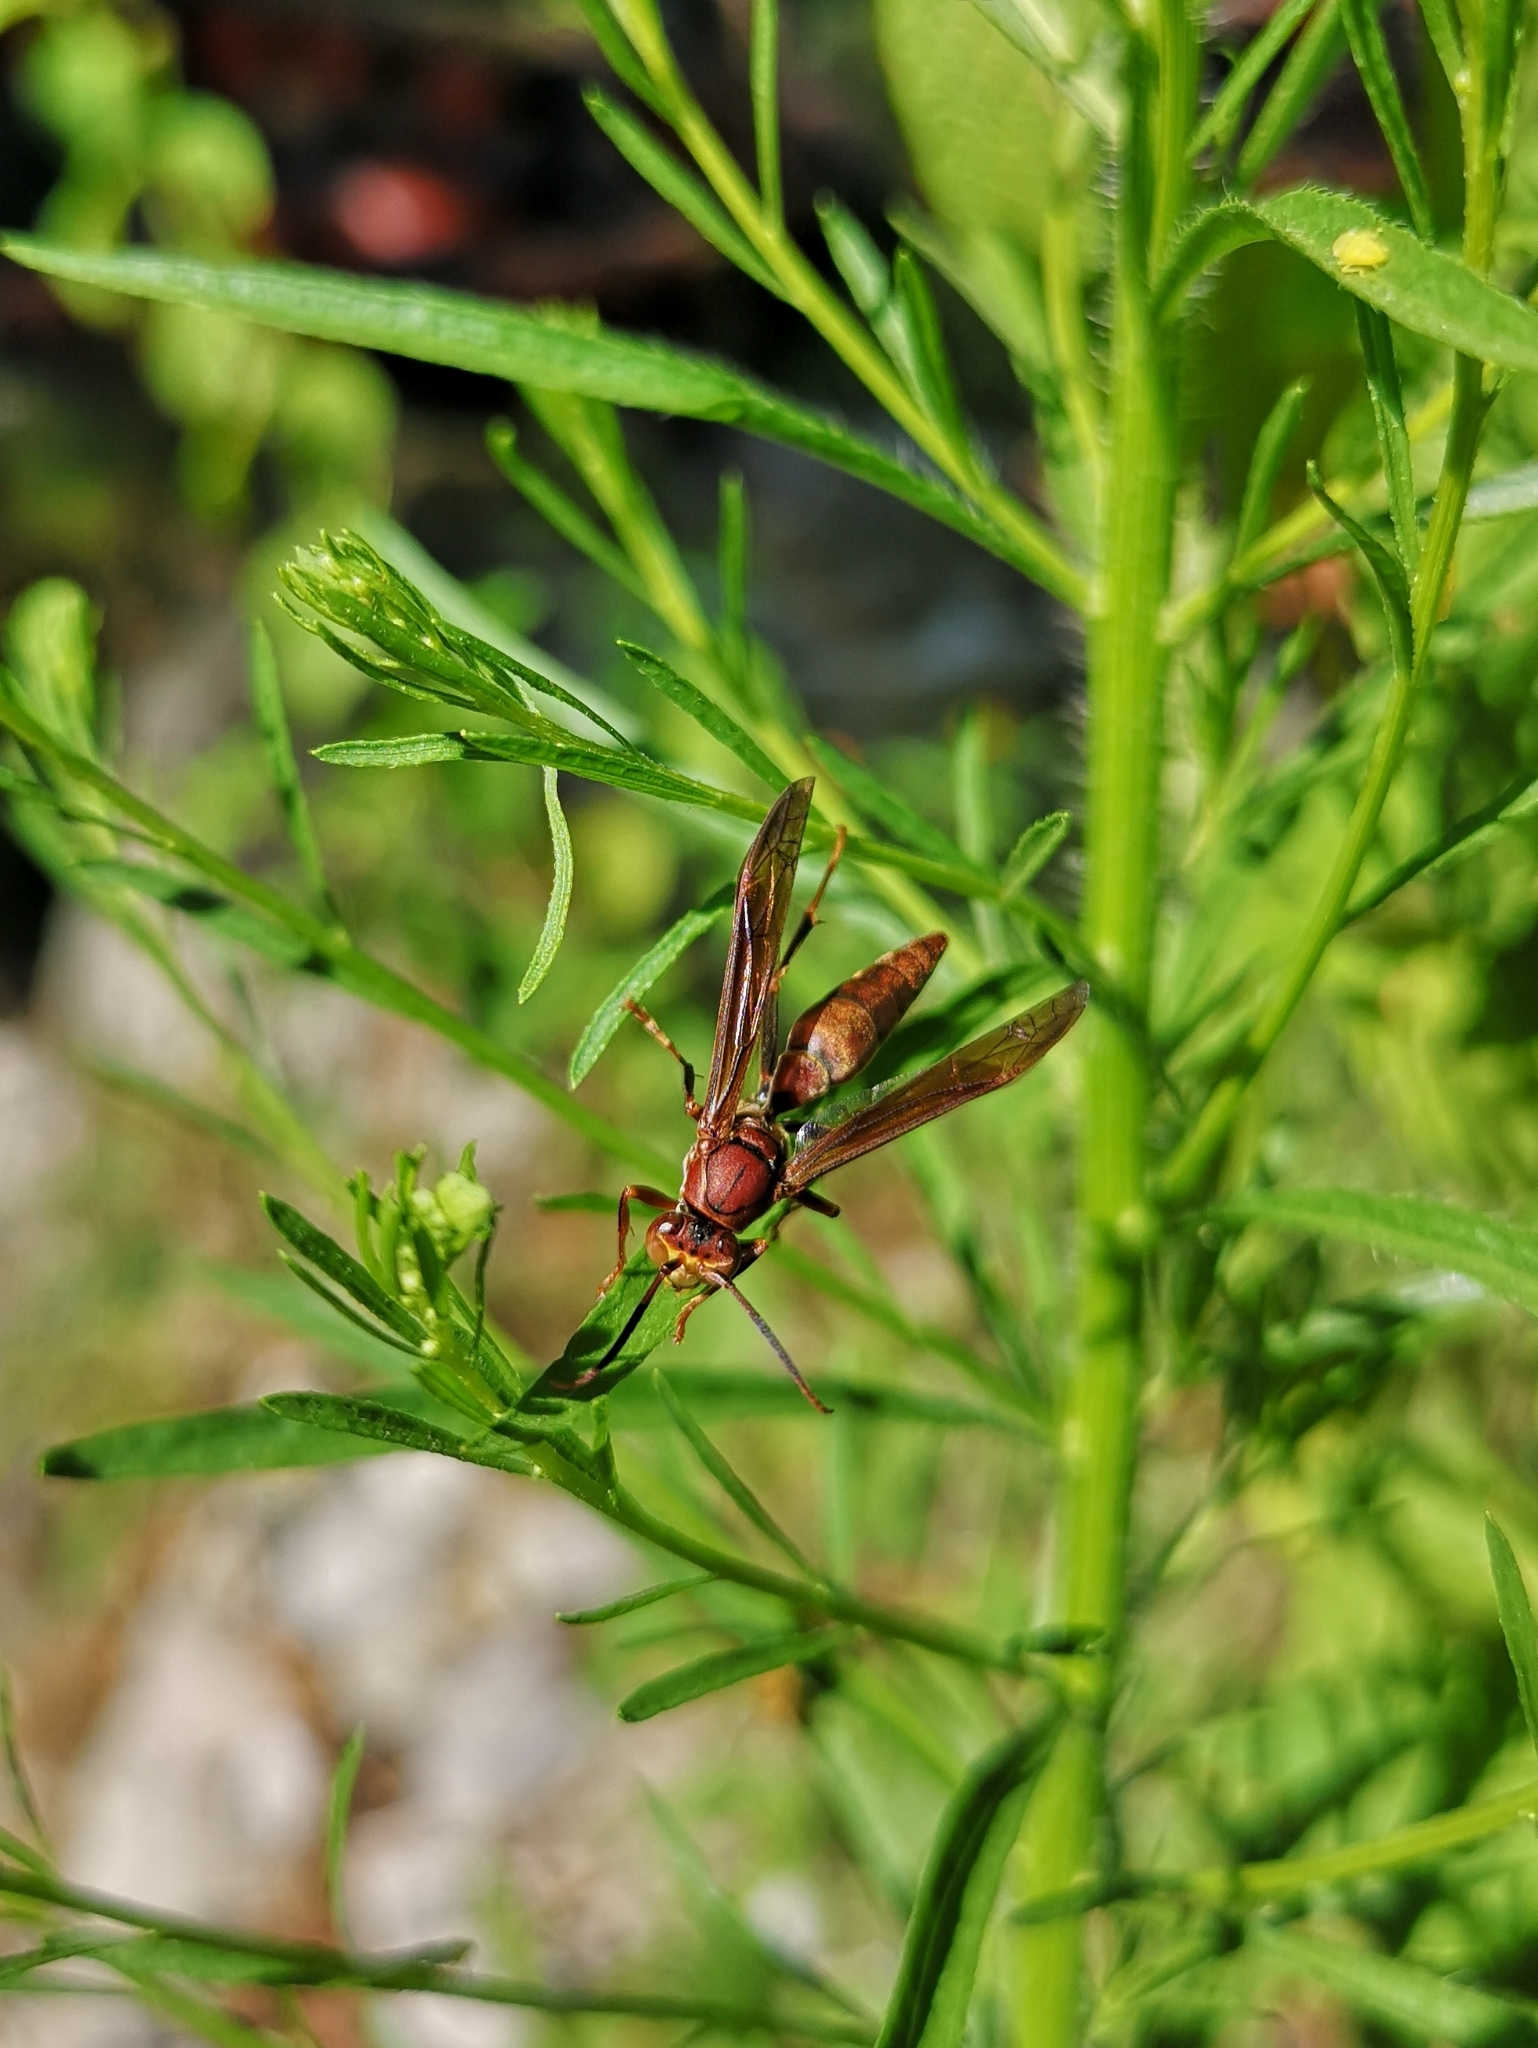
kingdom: Animalia
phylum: Arthropoda
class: Insecta
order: Hymenoptera
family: Eumenidae
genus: Polistes
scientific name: Polistes canadensis
